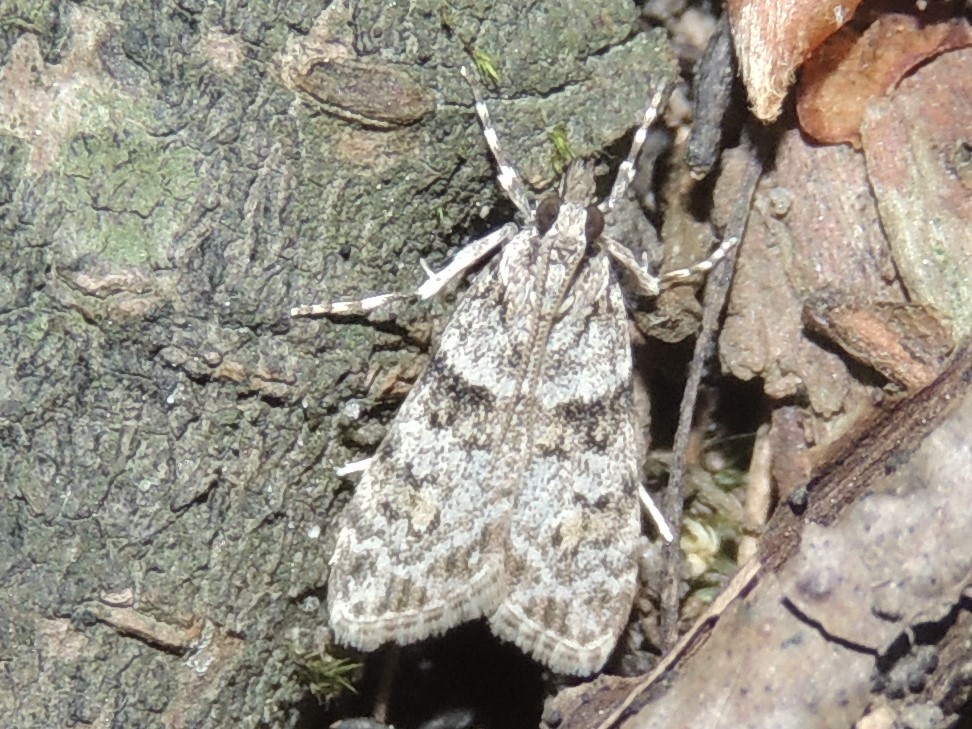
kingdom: Animalia
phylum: Arthropoda
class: Insecta
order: Lepidoptera
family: Crambidae
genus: Scoparia
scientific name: Scoparia biplagialis
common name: Double-striped scoparia moth
